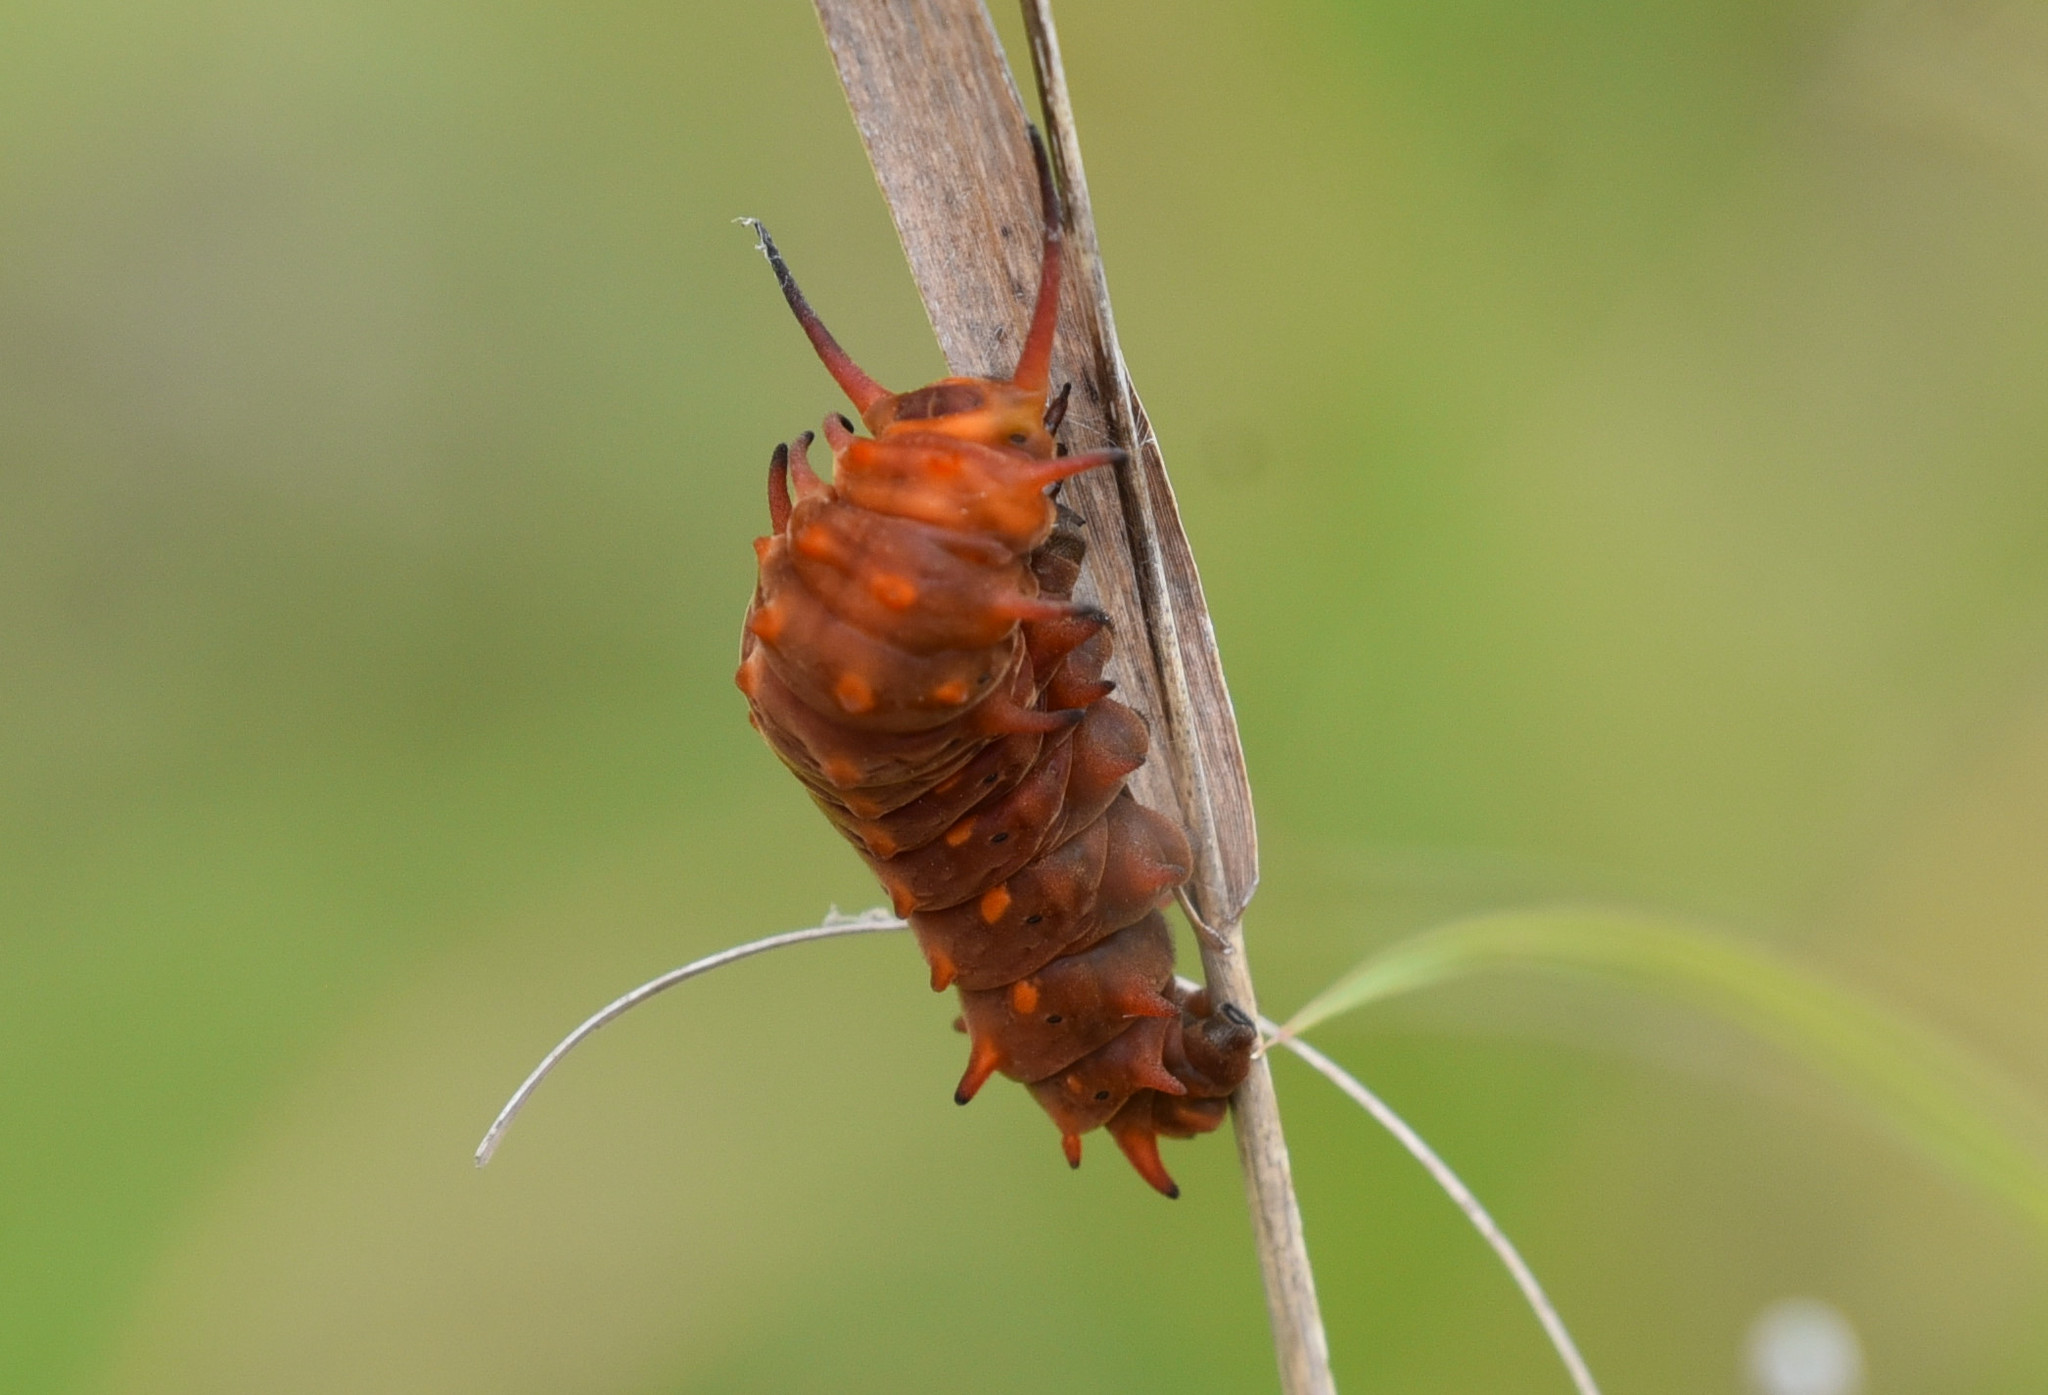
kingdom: Animalia
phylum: Arthropoda
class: Insecta
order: Lepidoptera
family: Papilionidae
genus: Battus
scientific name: Battus philenor
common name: Pipevine swallowtail
